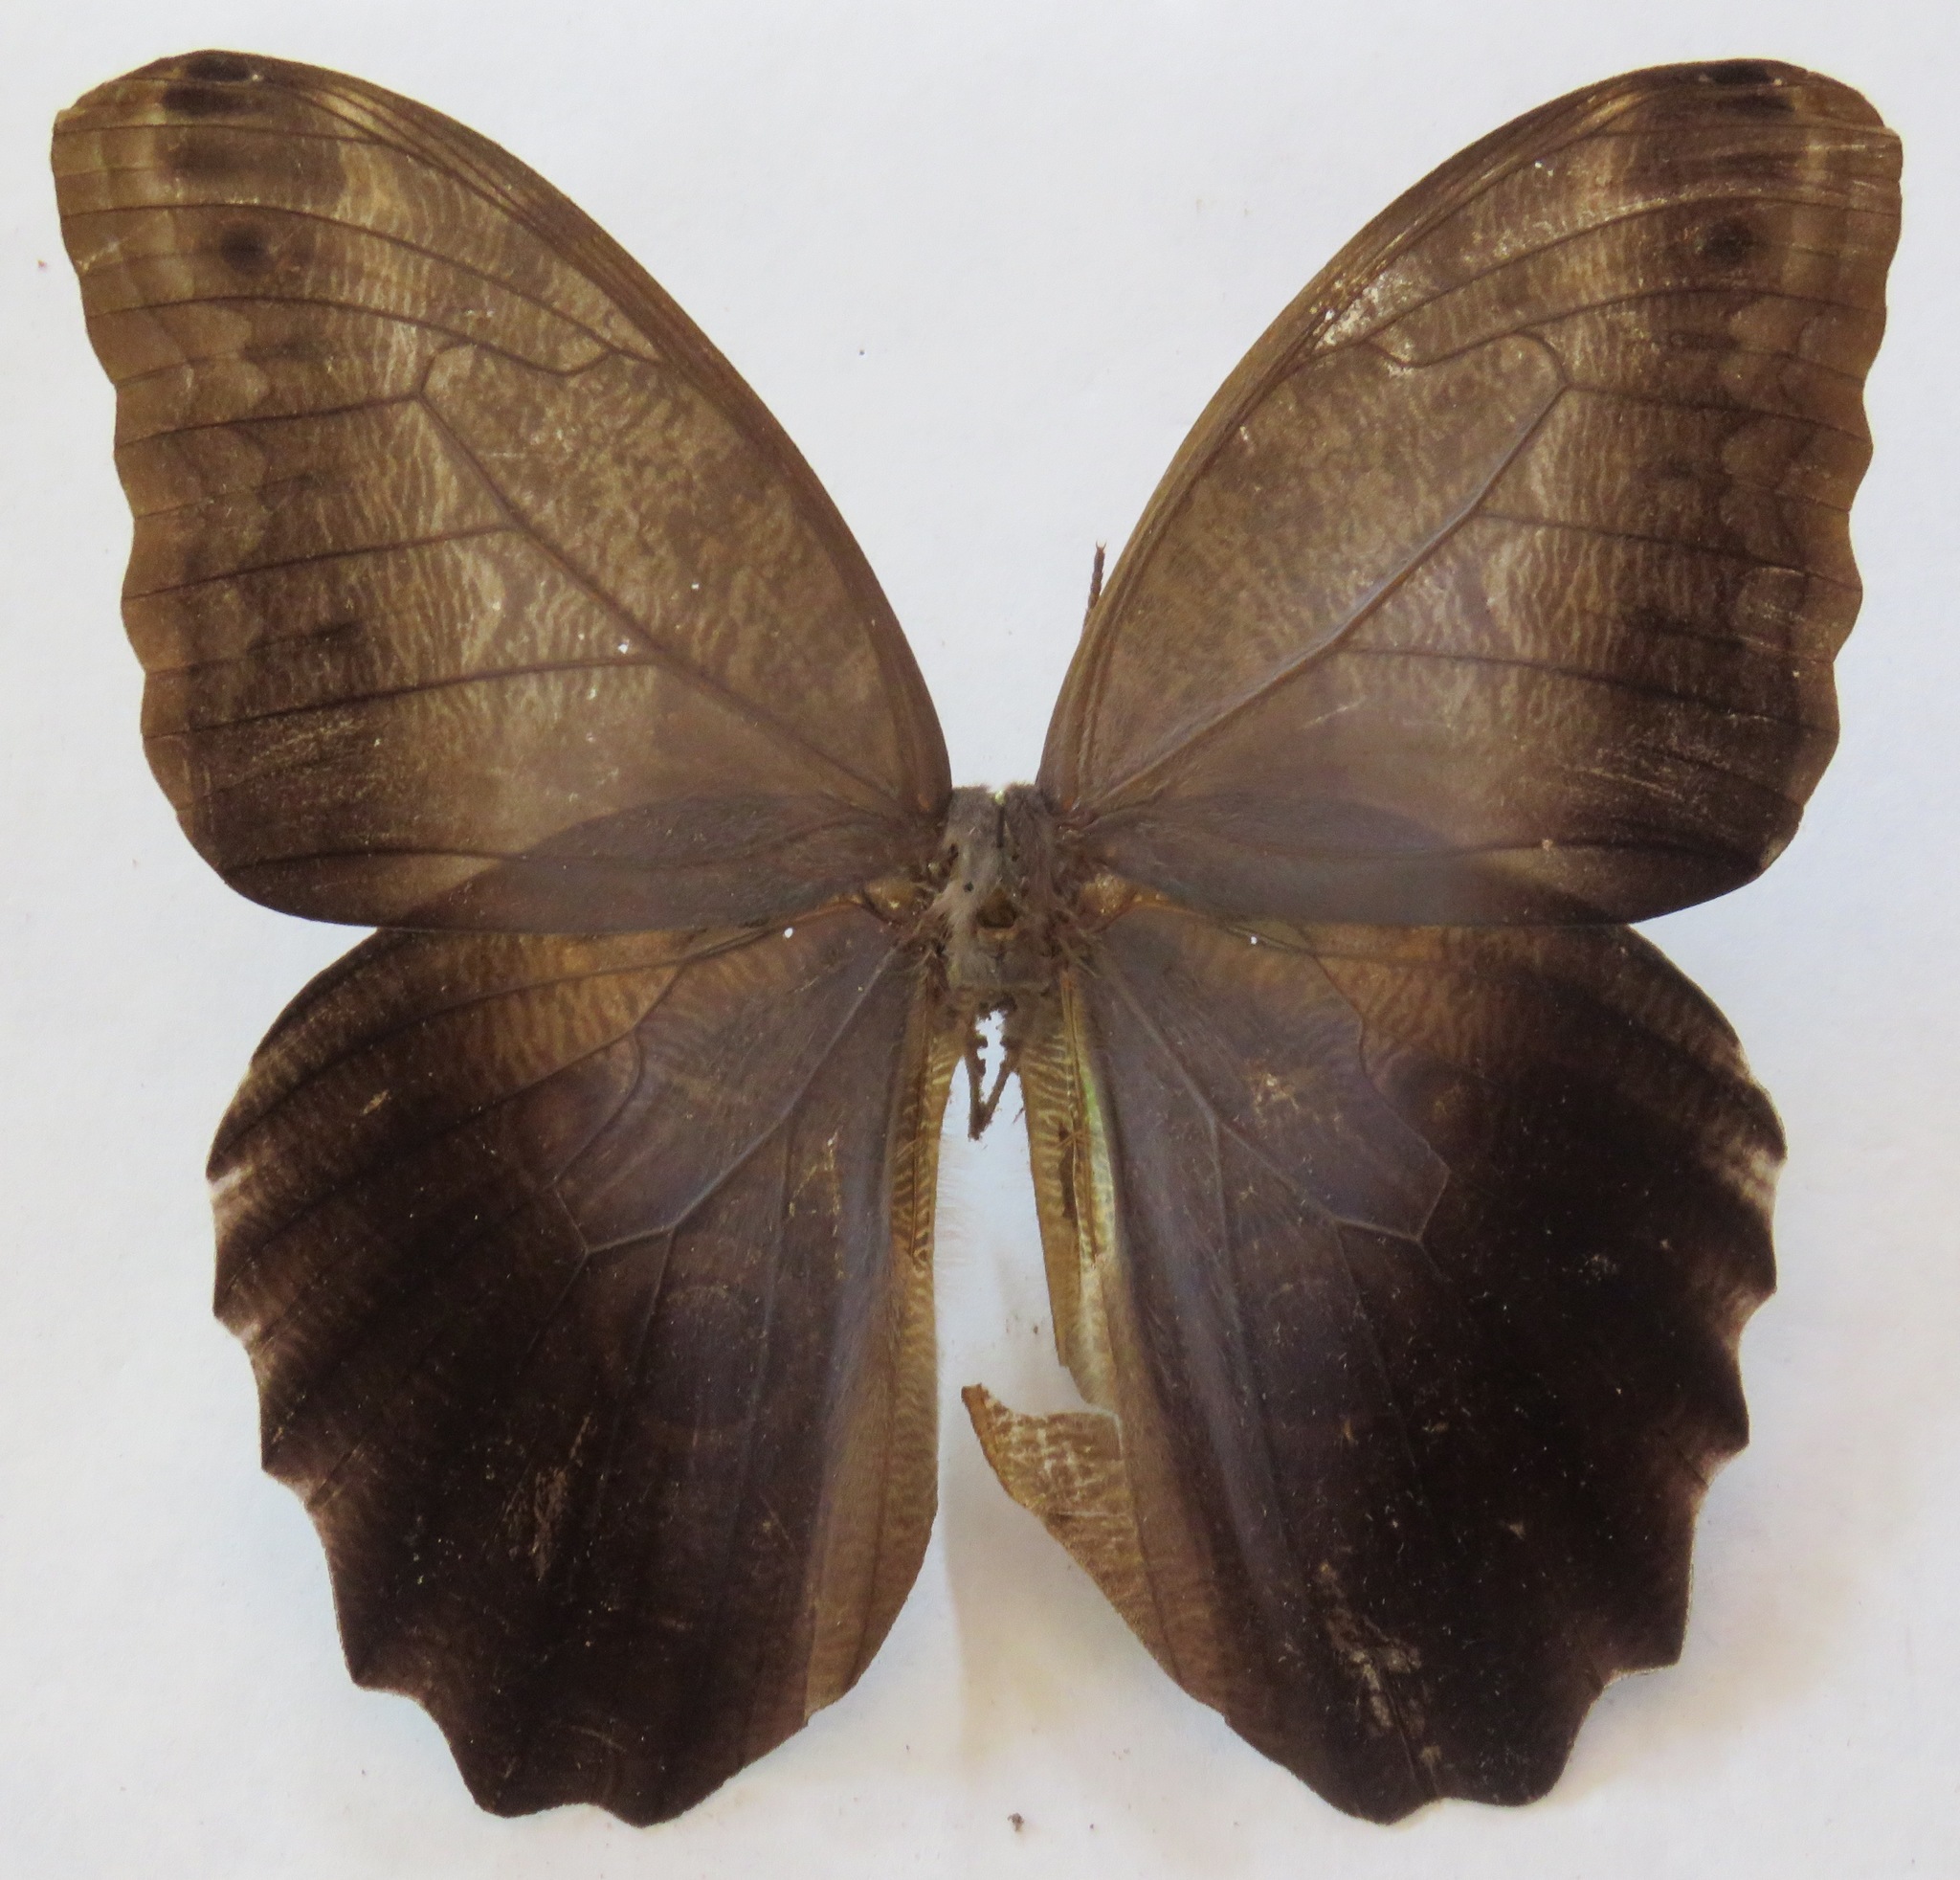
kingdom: Animalia
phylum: Arthropoda
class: Insecta
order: Lepidoptera
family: Nymphalidae
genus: Caligo
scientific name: Caligo brasiliensis
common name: Dark owl-butterfly
